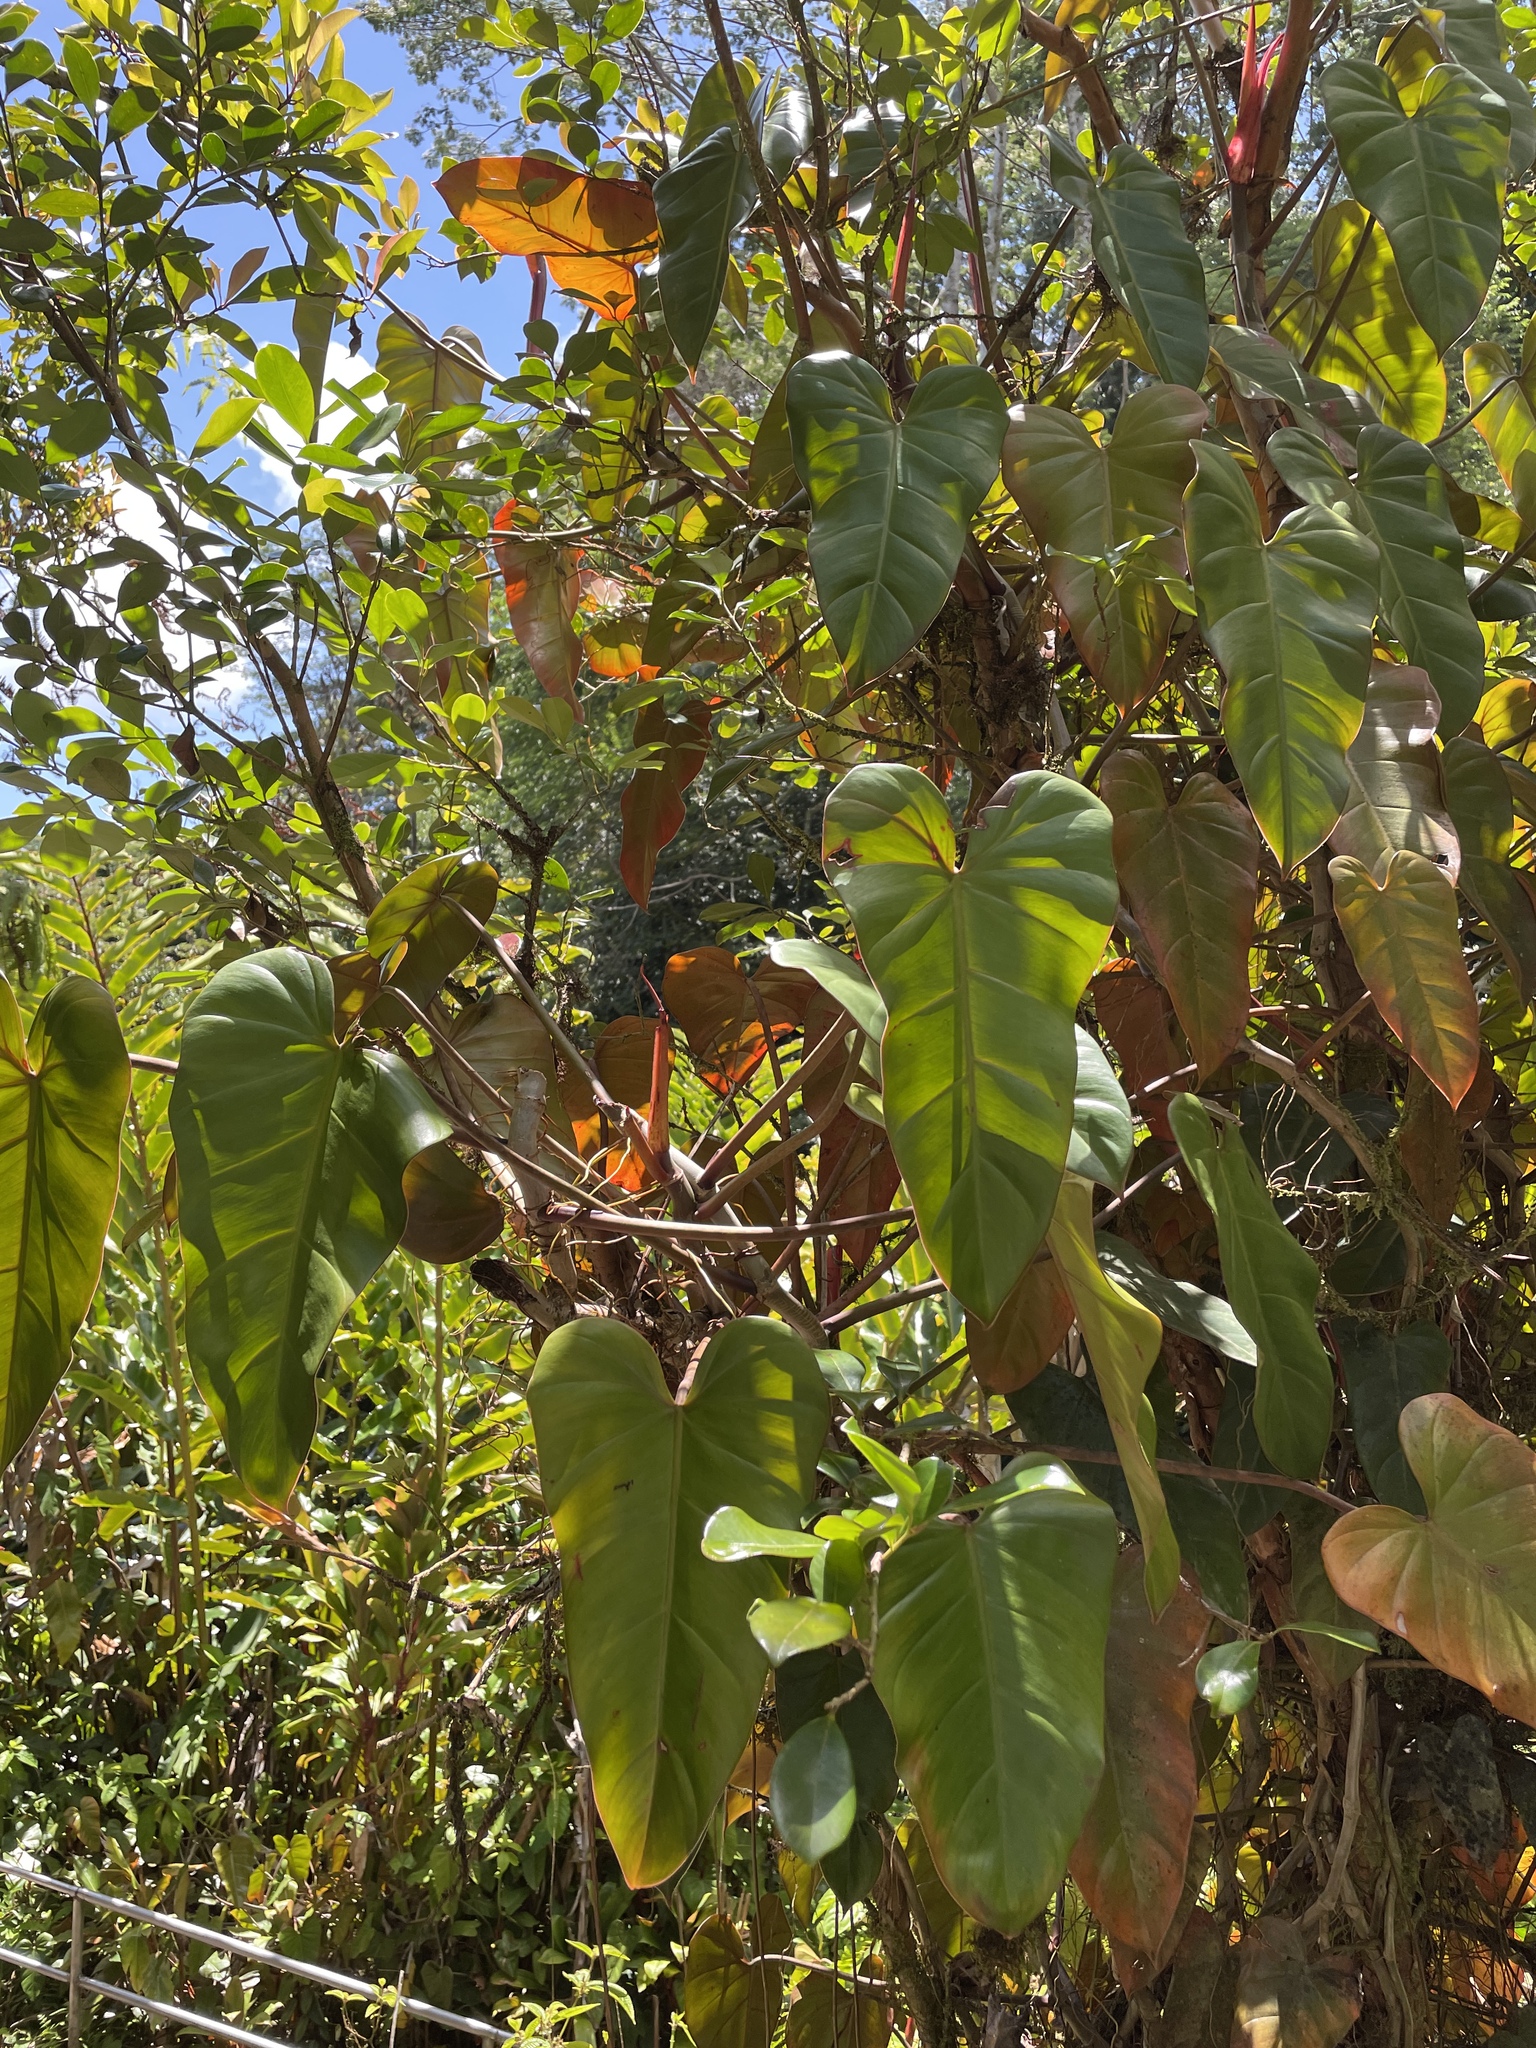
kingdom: Plantae
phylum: Tracheophyta
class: Liliopsida
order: Alismatales
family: Araceae
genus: Philodendron
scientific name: Philodendron erubescens
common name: Philodendron
